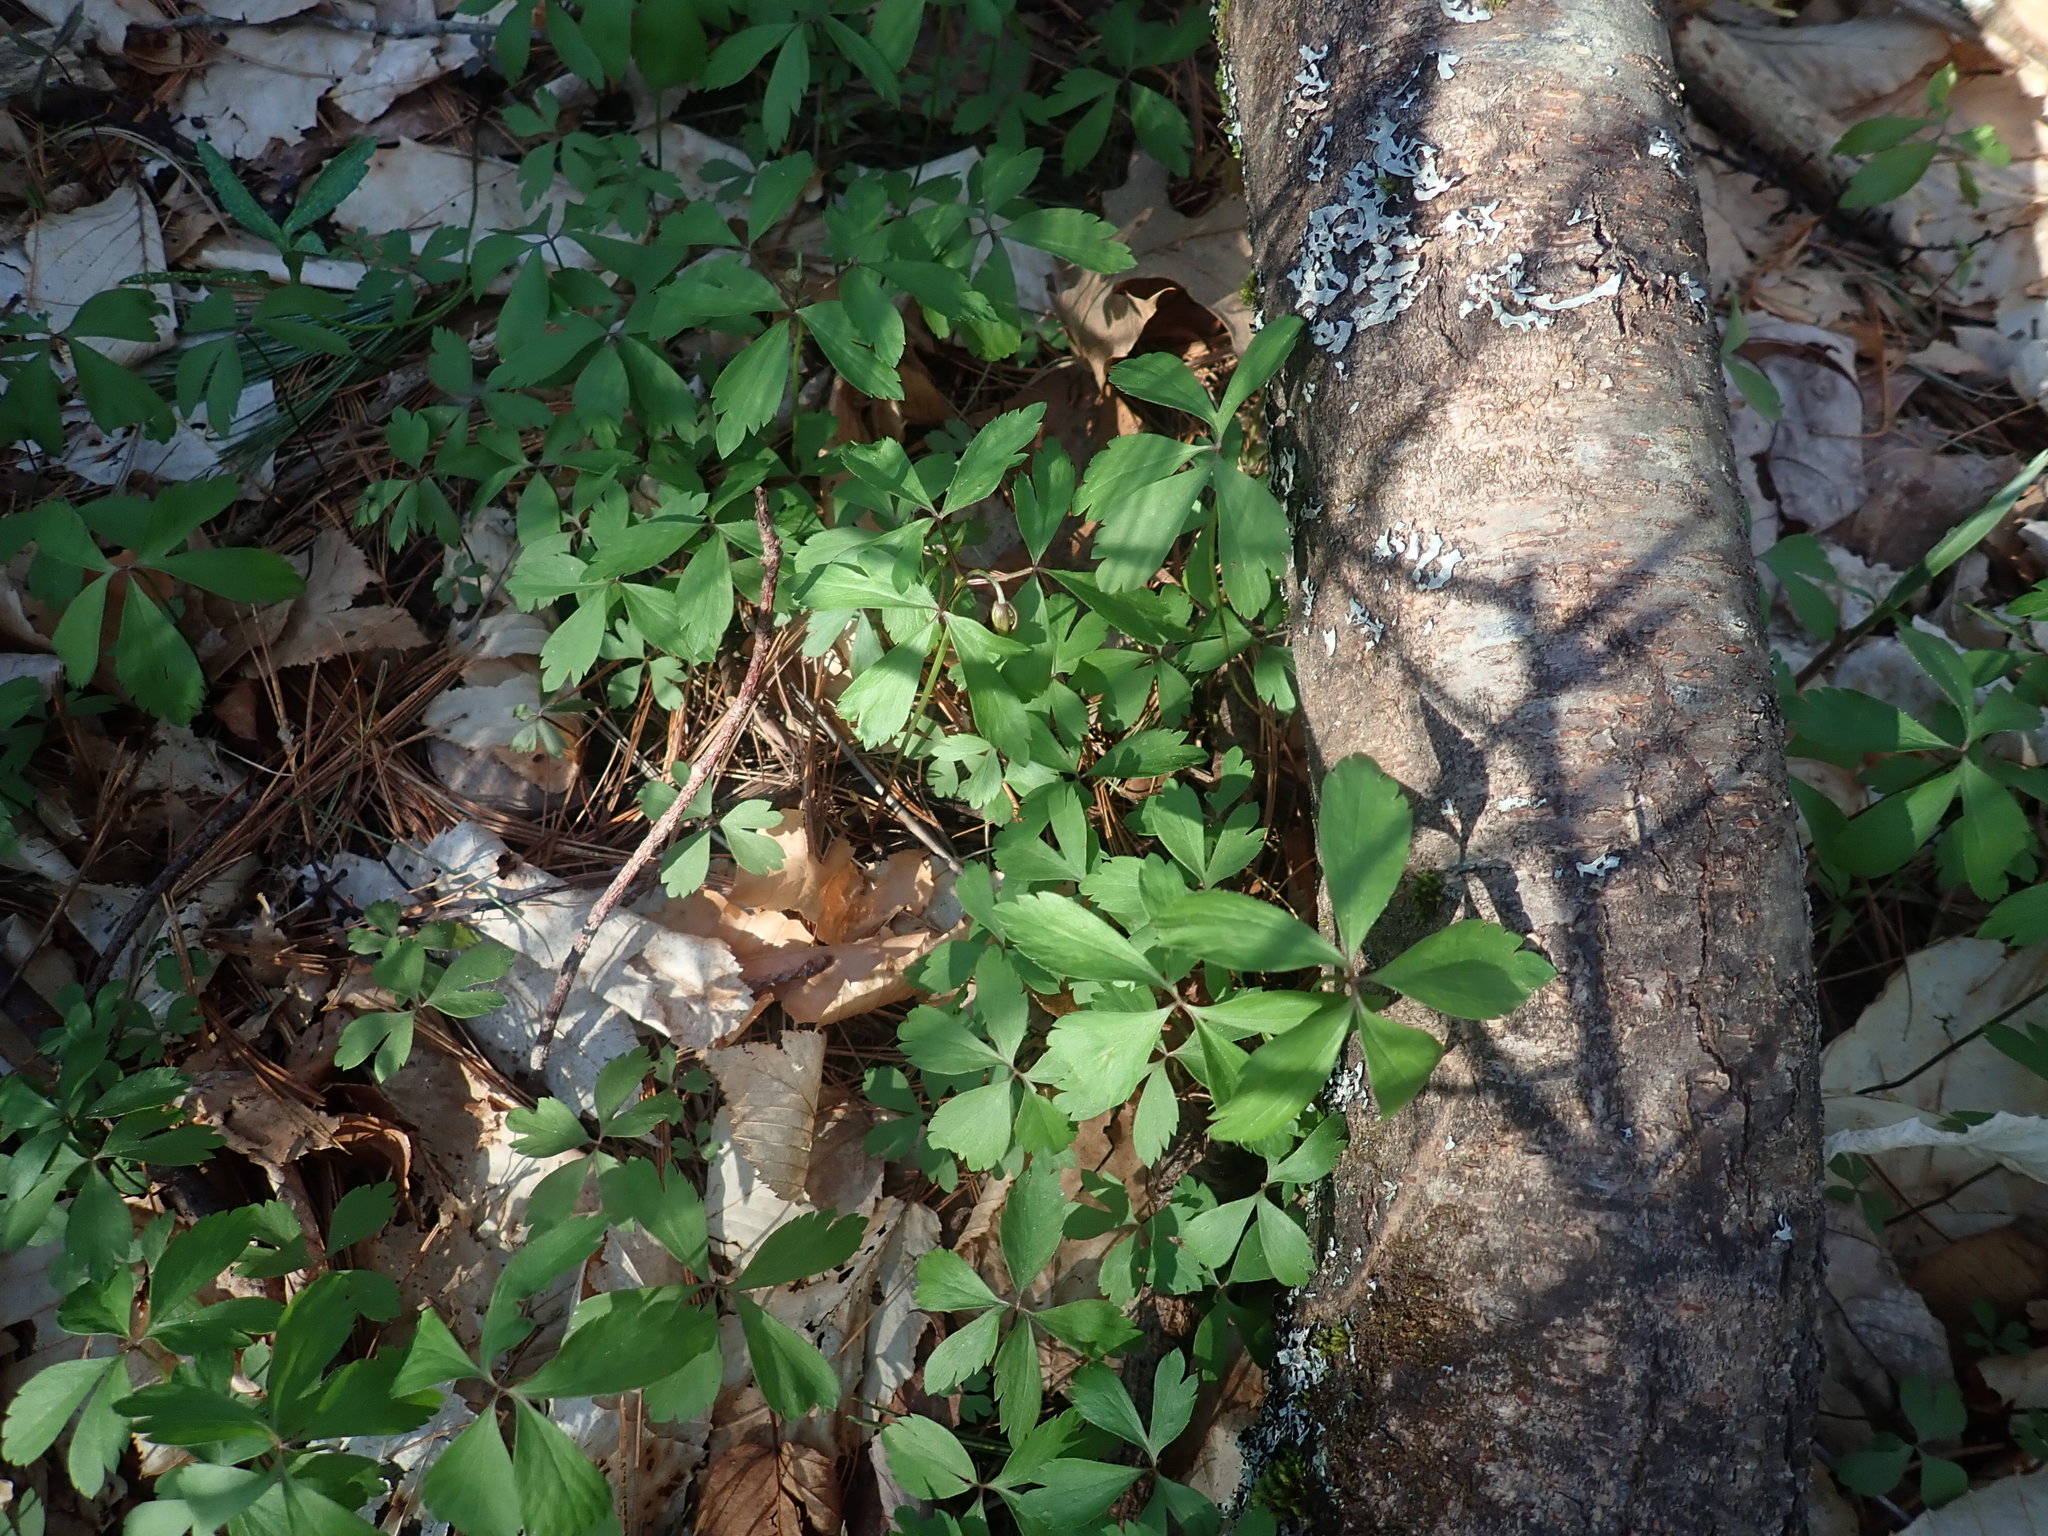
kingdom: Plantae
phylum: Tracheophyta
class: Magnoliopsida
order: Ranunculales
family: Ranunculaceae
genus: Anemone
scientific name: Anemone quinquefolia
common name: Wood anemone
